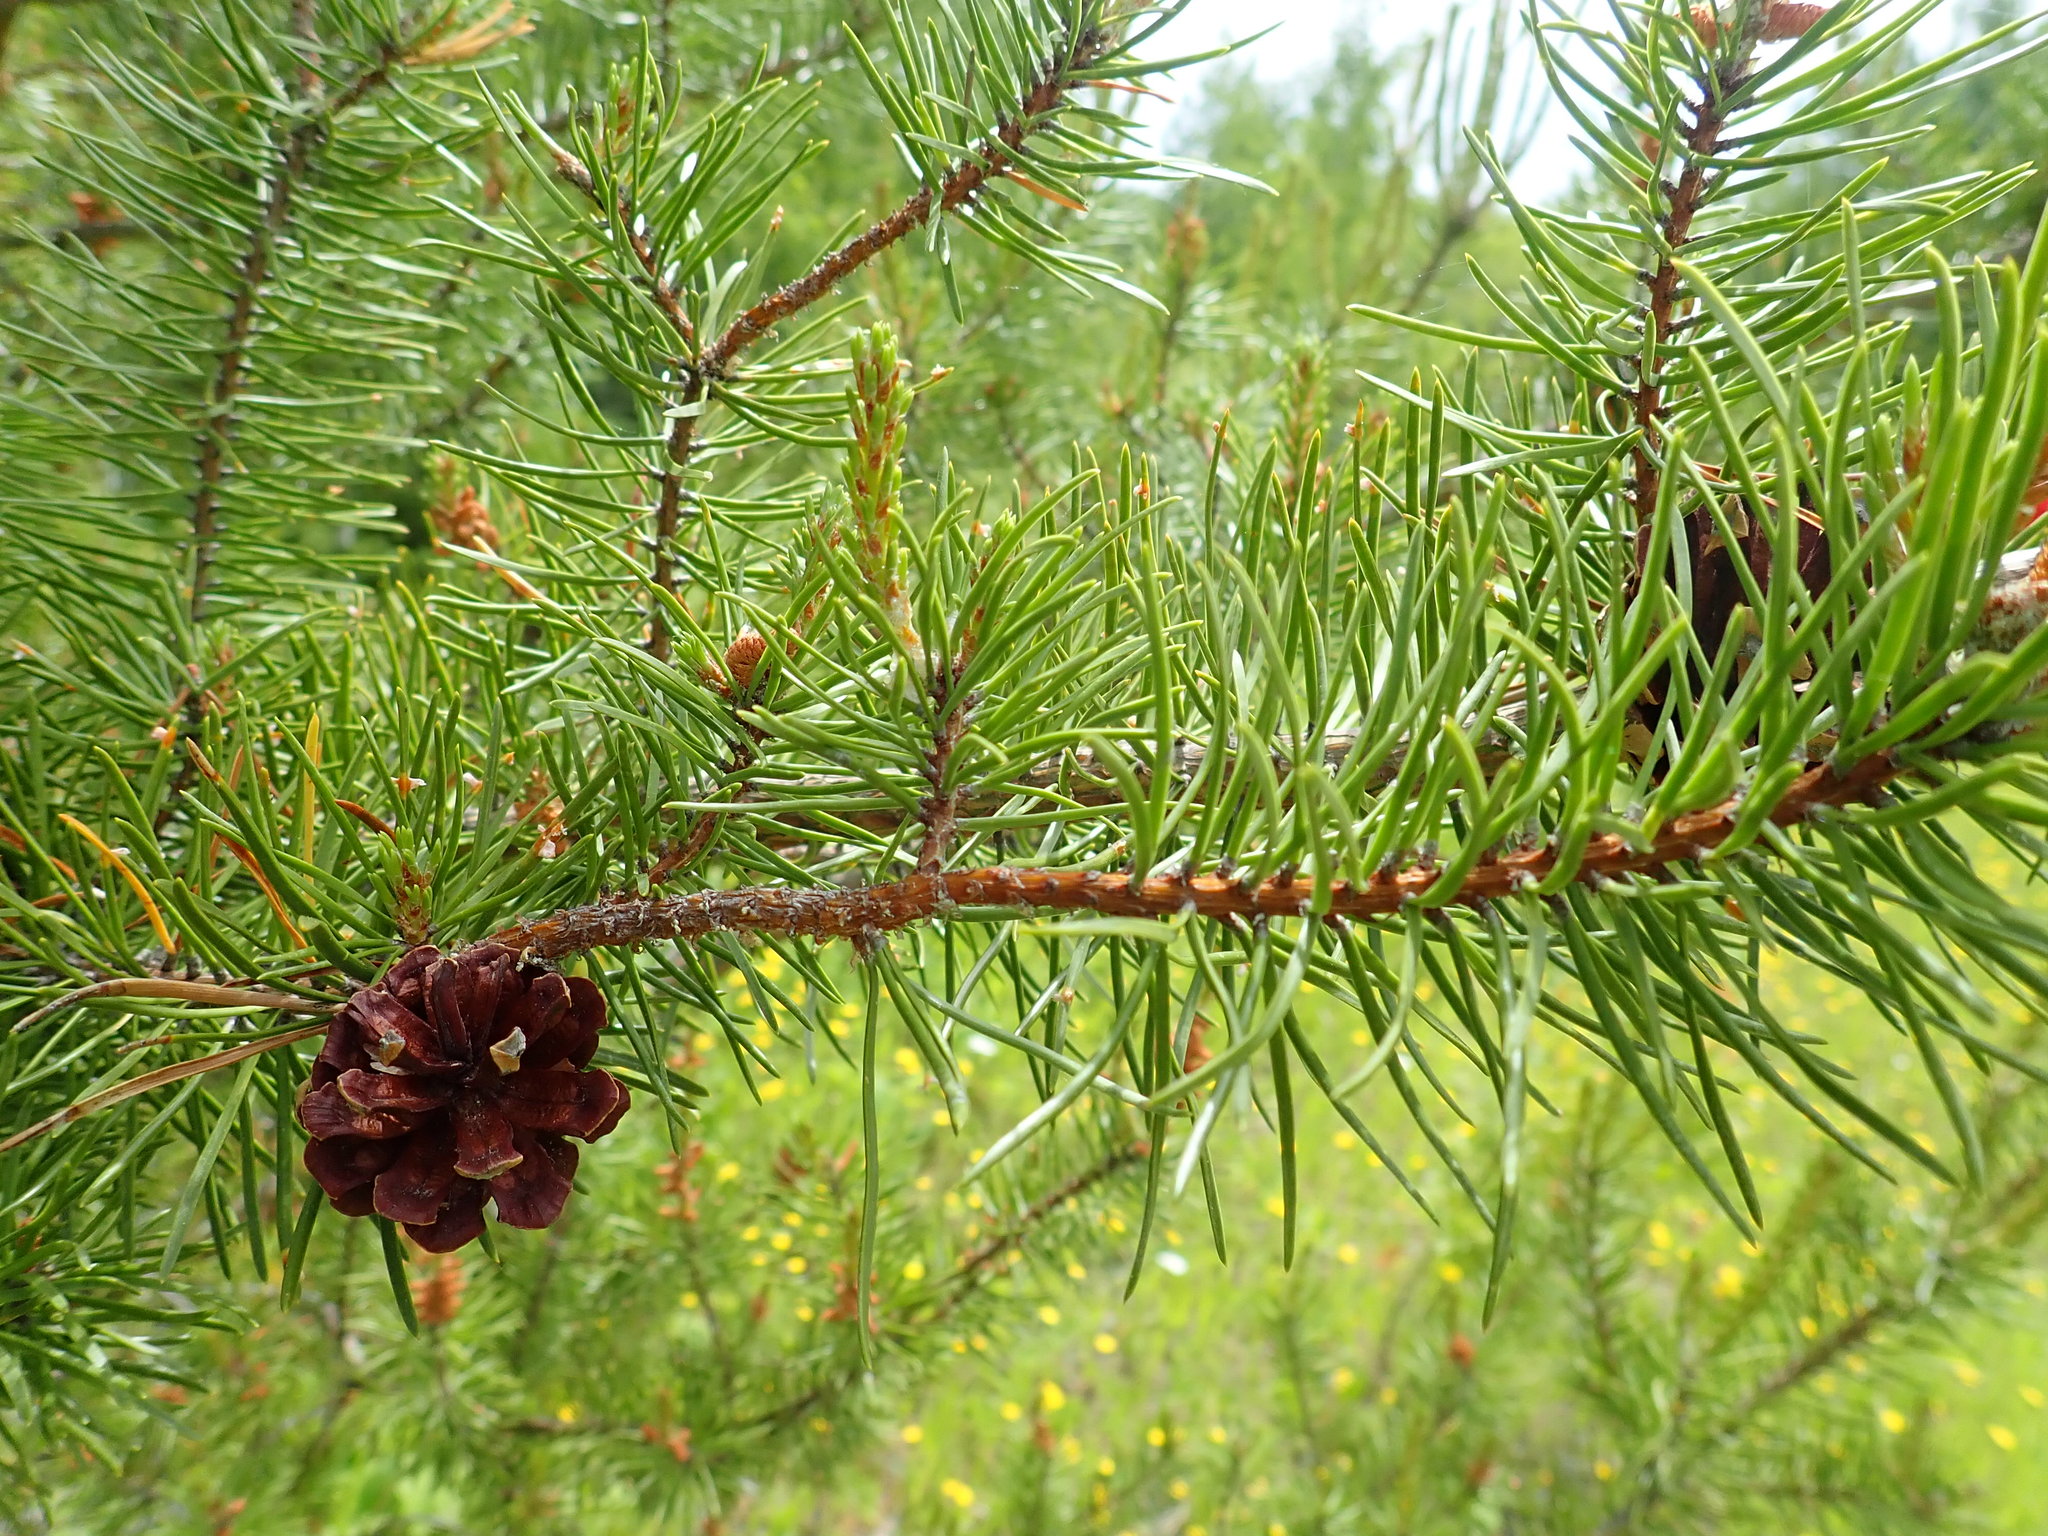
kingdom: Plantae
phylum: Tracheophyta
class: Pinopsida
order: Pinales
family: Pinaceae
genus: Pinus
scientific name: Pinus banksiana
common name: Jack pine
